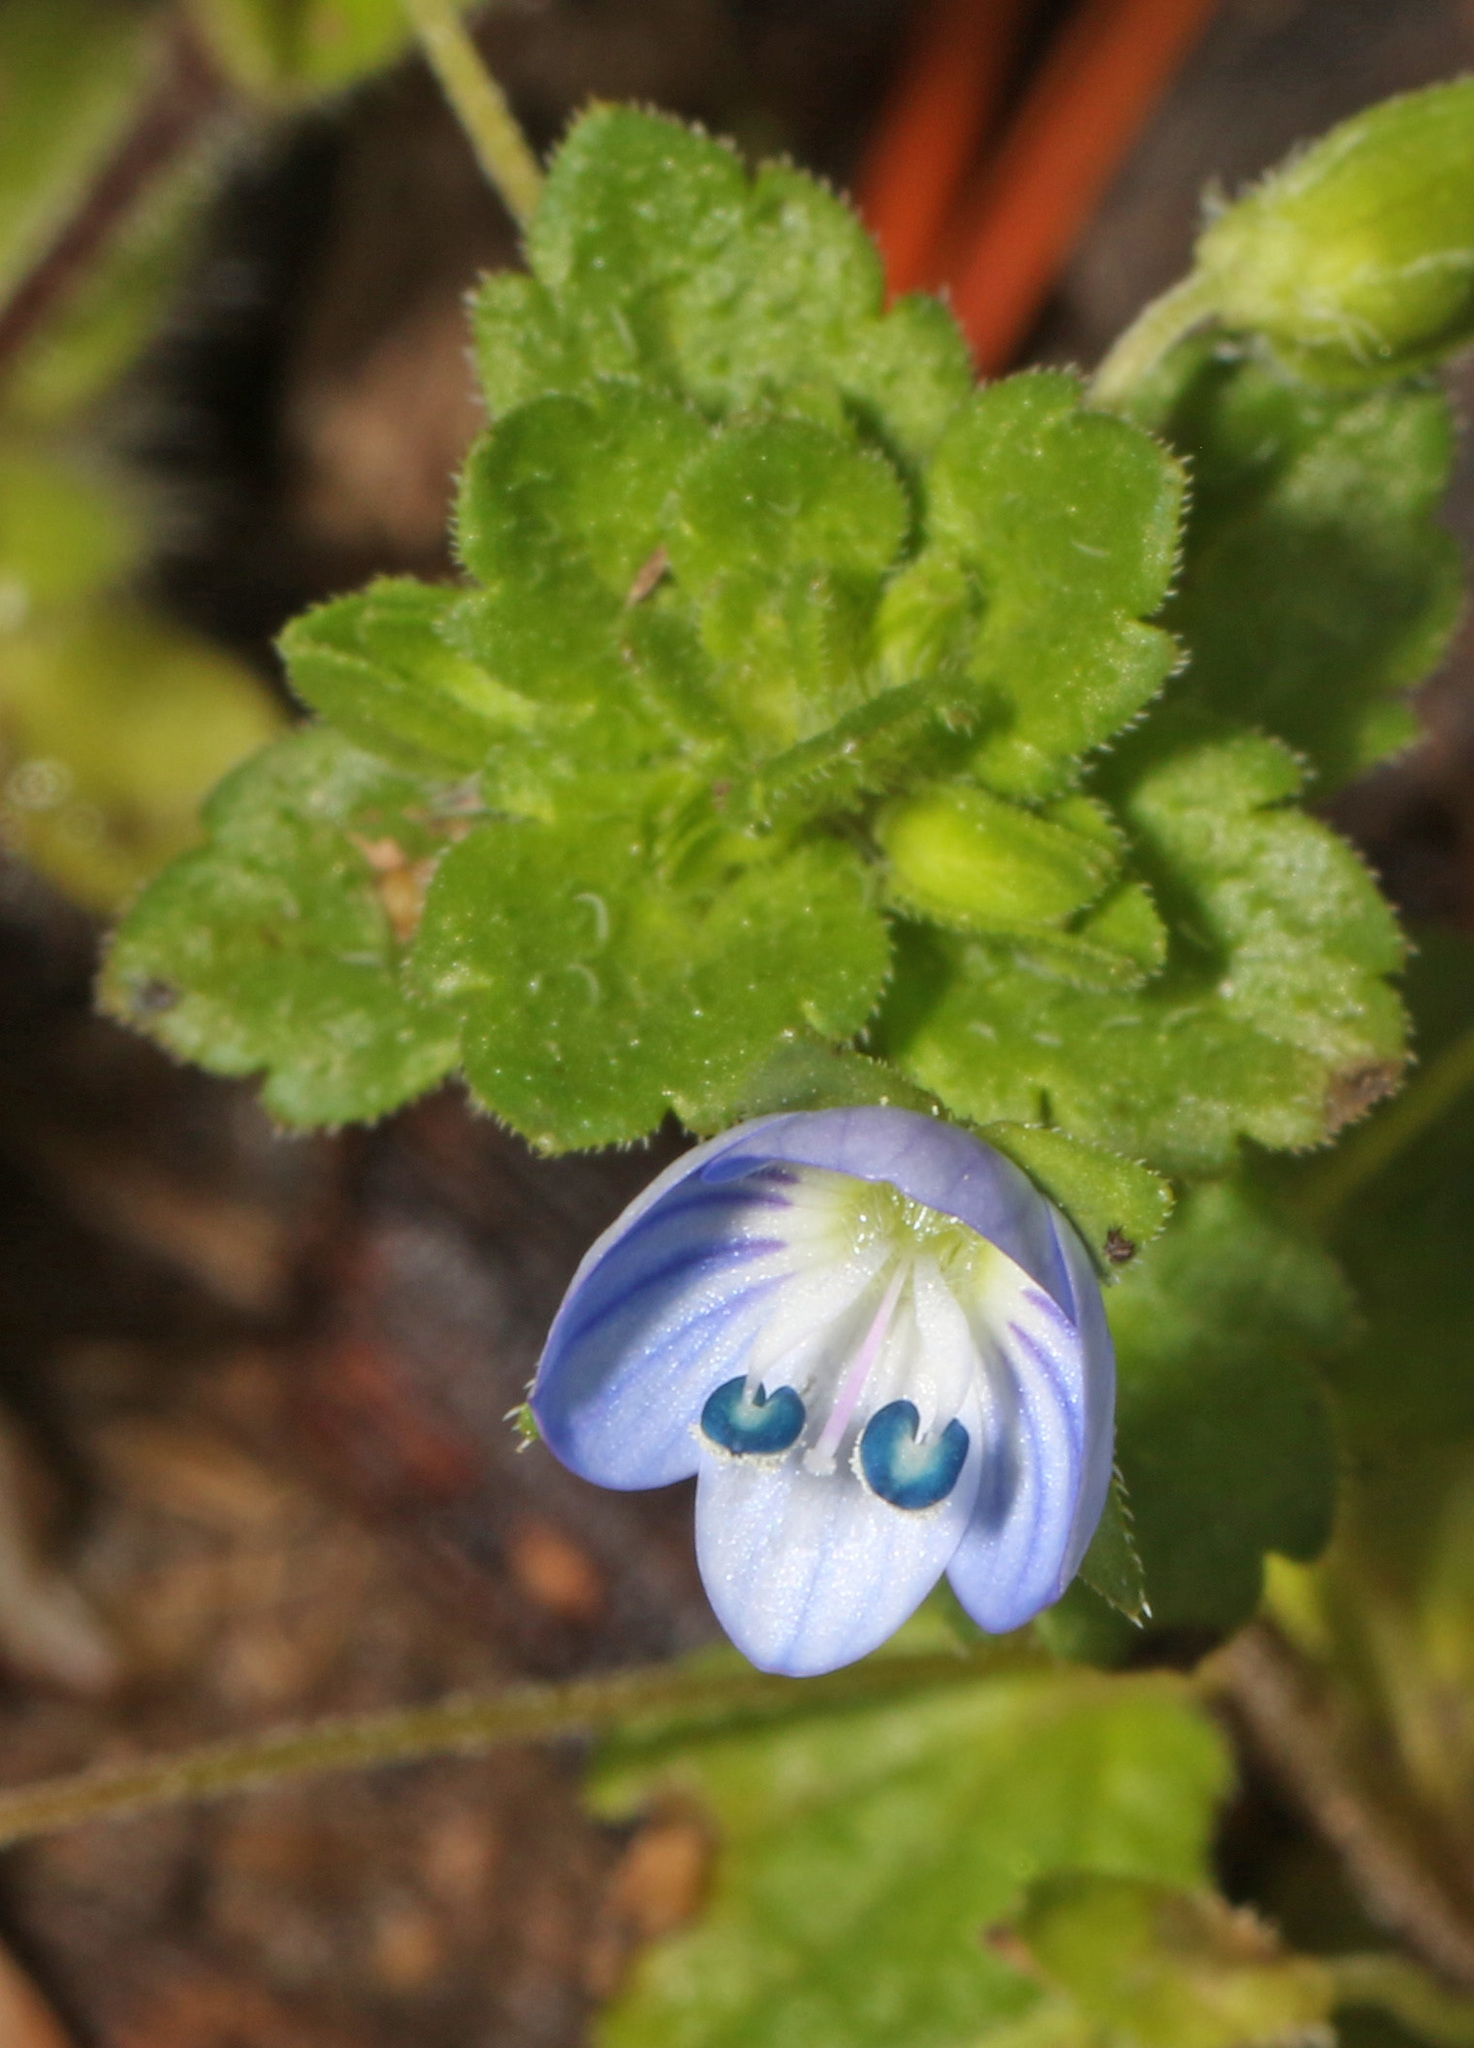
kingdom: Plantae
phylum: Tracheophyta
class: Magnoliopsida
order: Lamiales
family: Plantaginaceae
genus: Veronica
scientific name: Veronica persica
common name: Common field-speedwell
